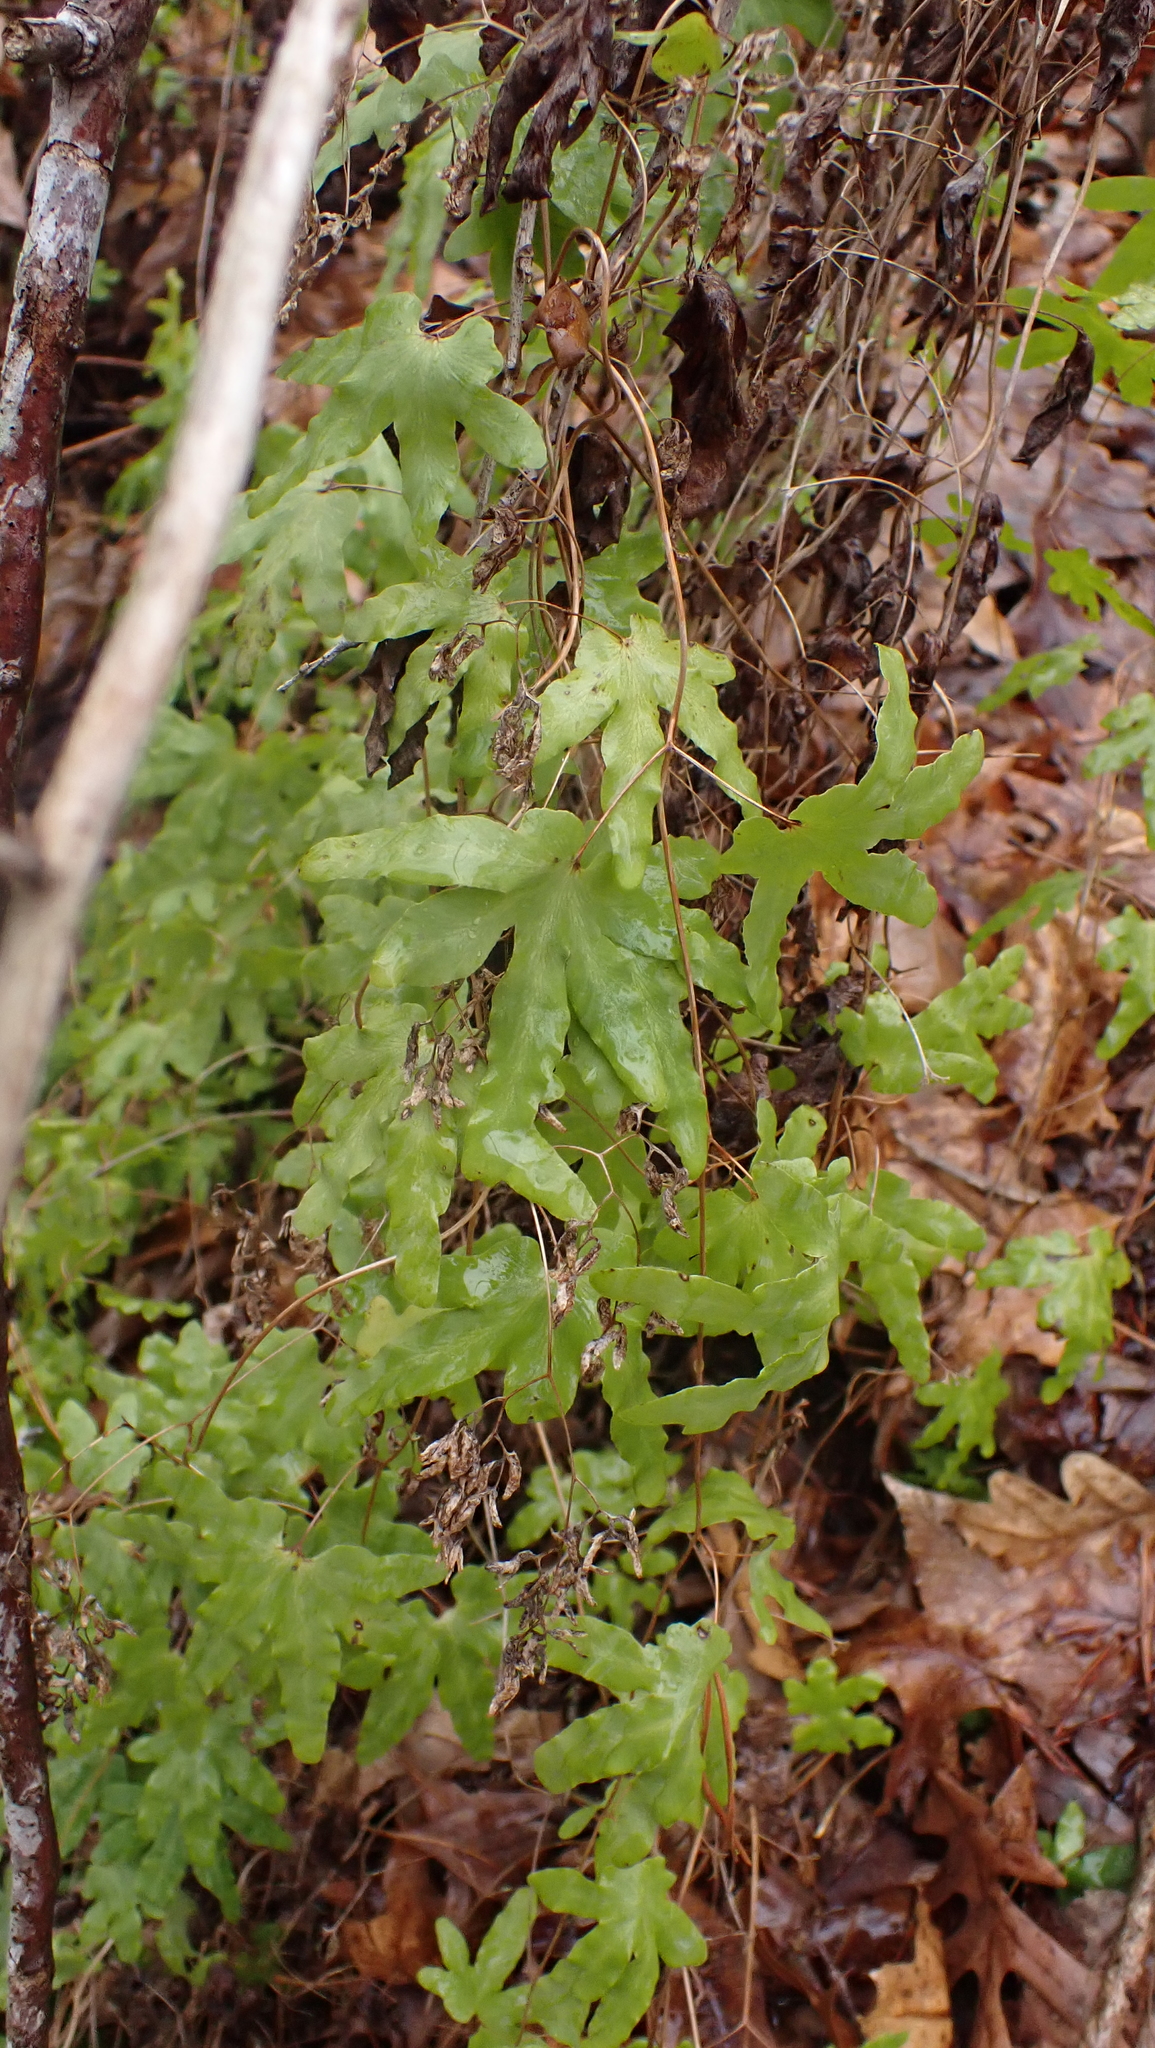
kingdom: Plantae
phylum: Tracheophyta
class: Polypodiopsida
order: Schizaeales
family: Lygodiaceae
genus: Lygodium
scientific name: Lygodium palmatum
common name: American climbing fern
